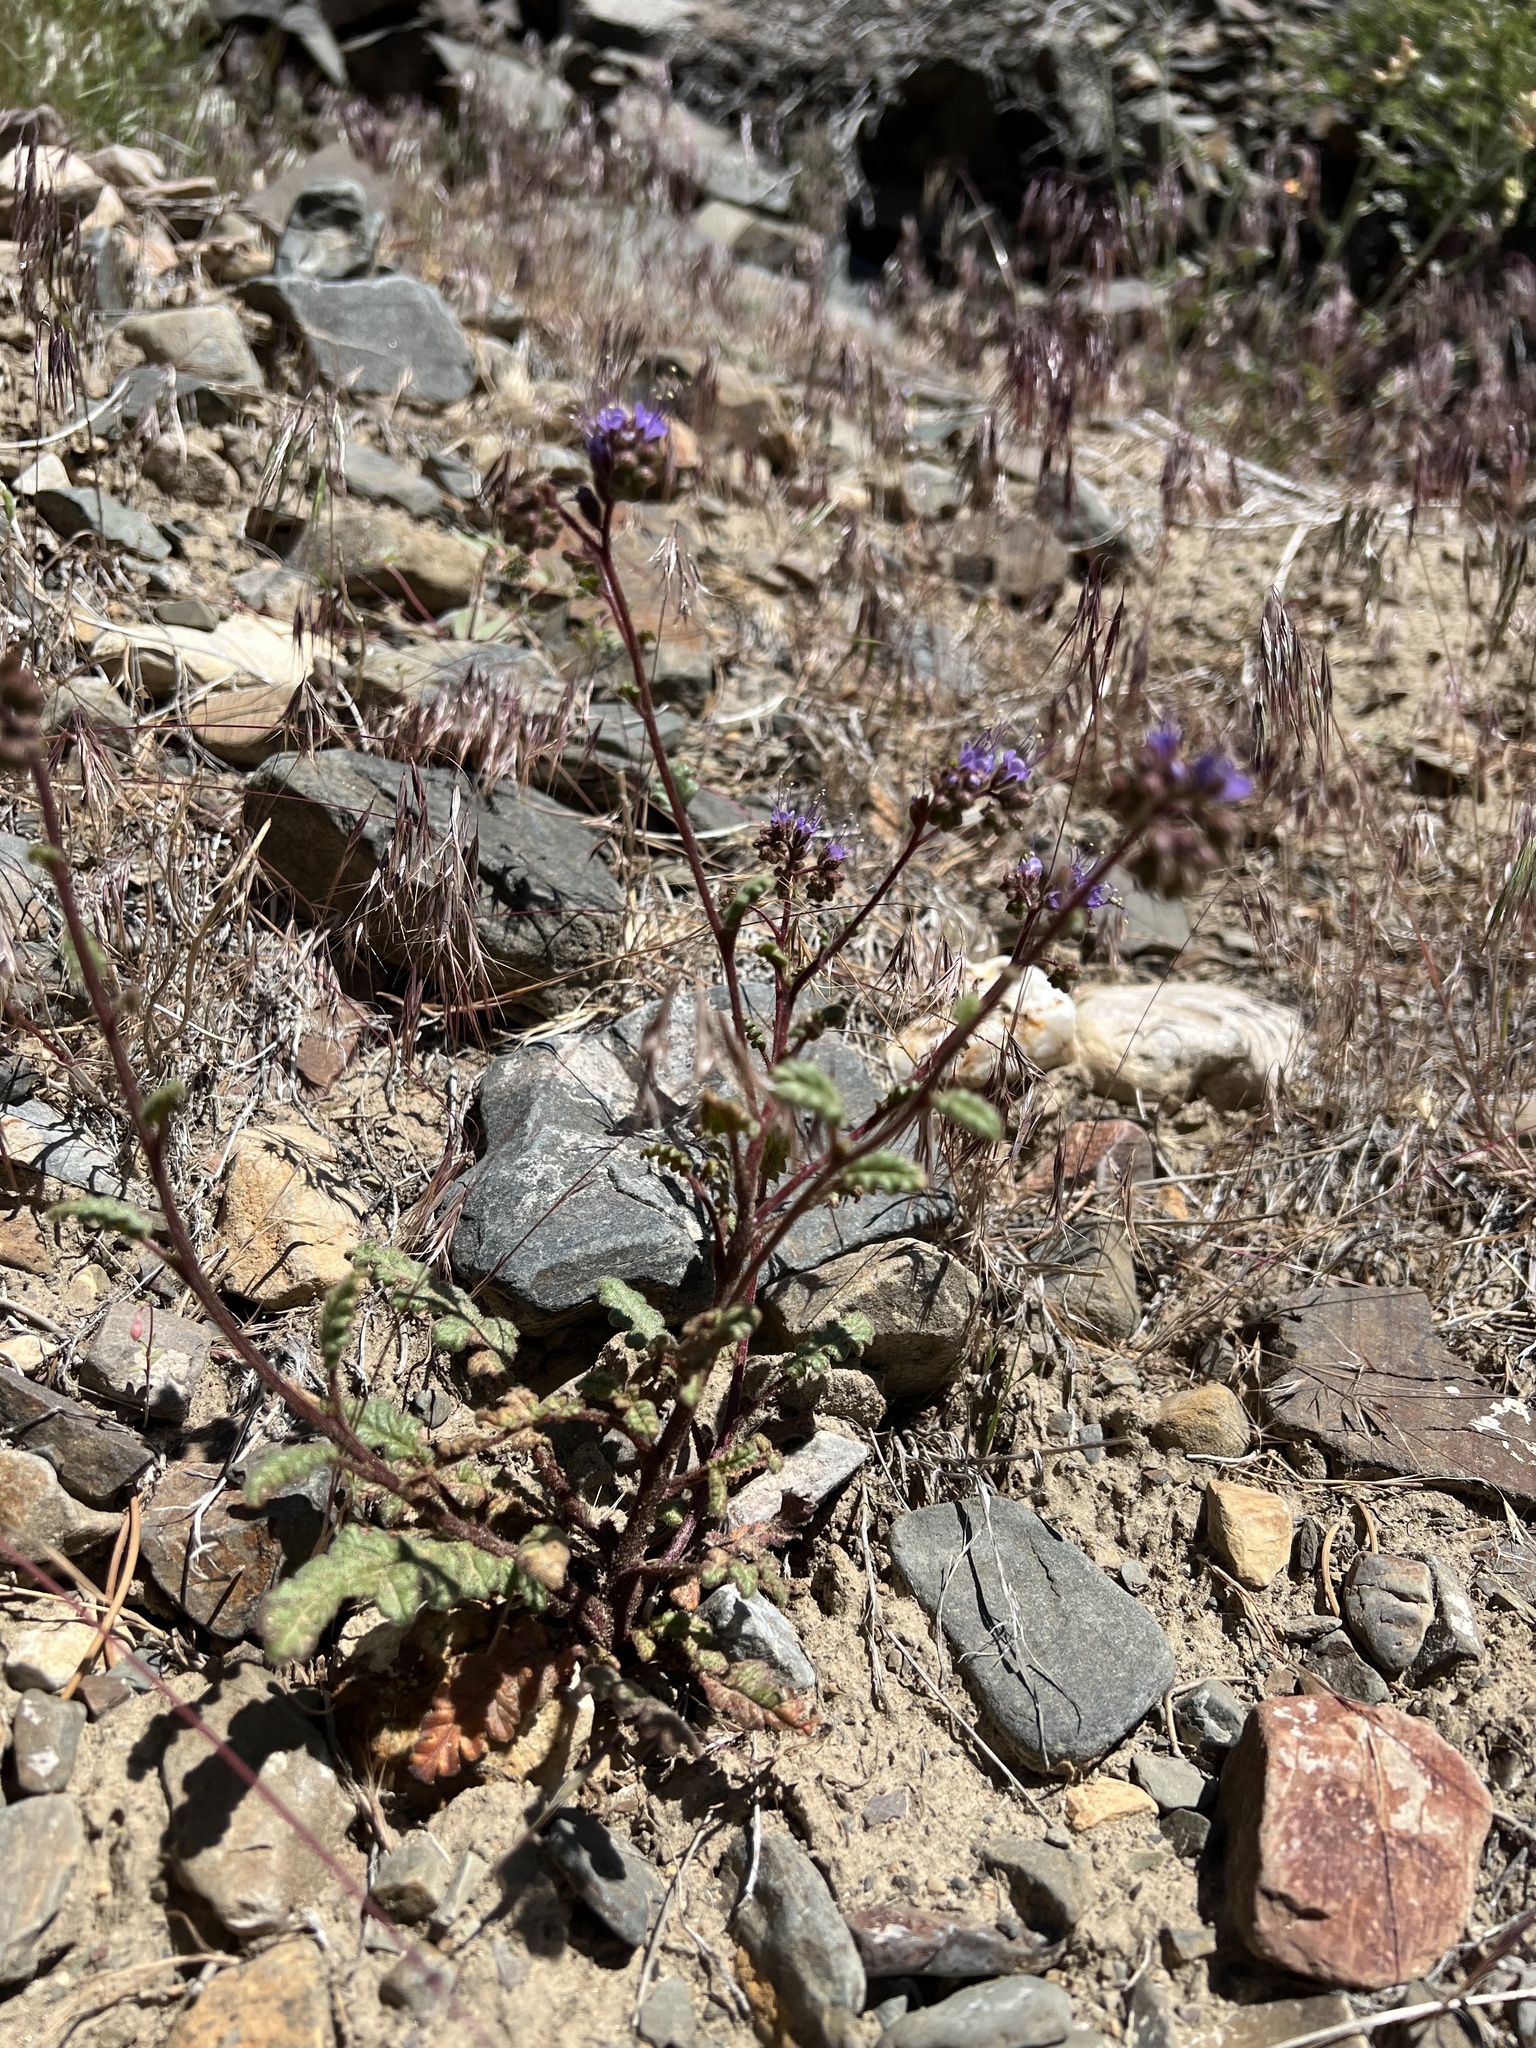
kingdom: Plantae
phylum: Tracheophyta
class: Magnoliopsida
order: Boraginales
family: Hydrophyllaceae
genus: Phacelia
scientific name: Phacelia crenulata
